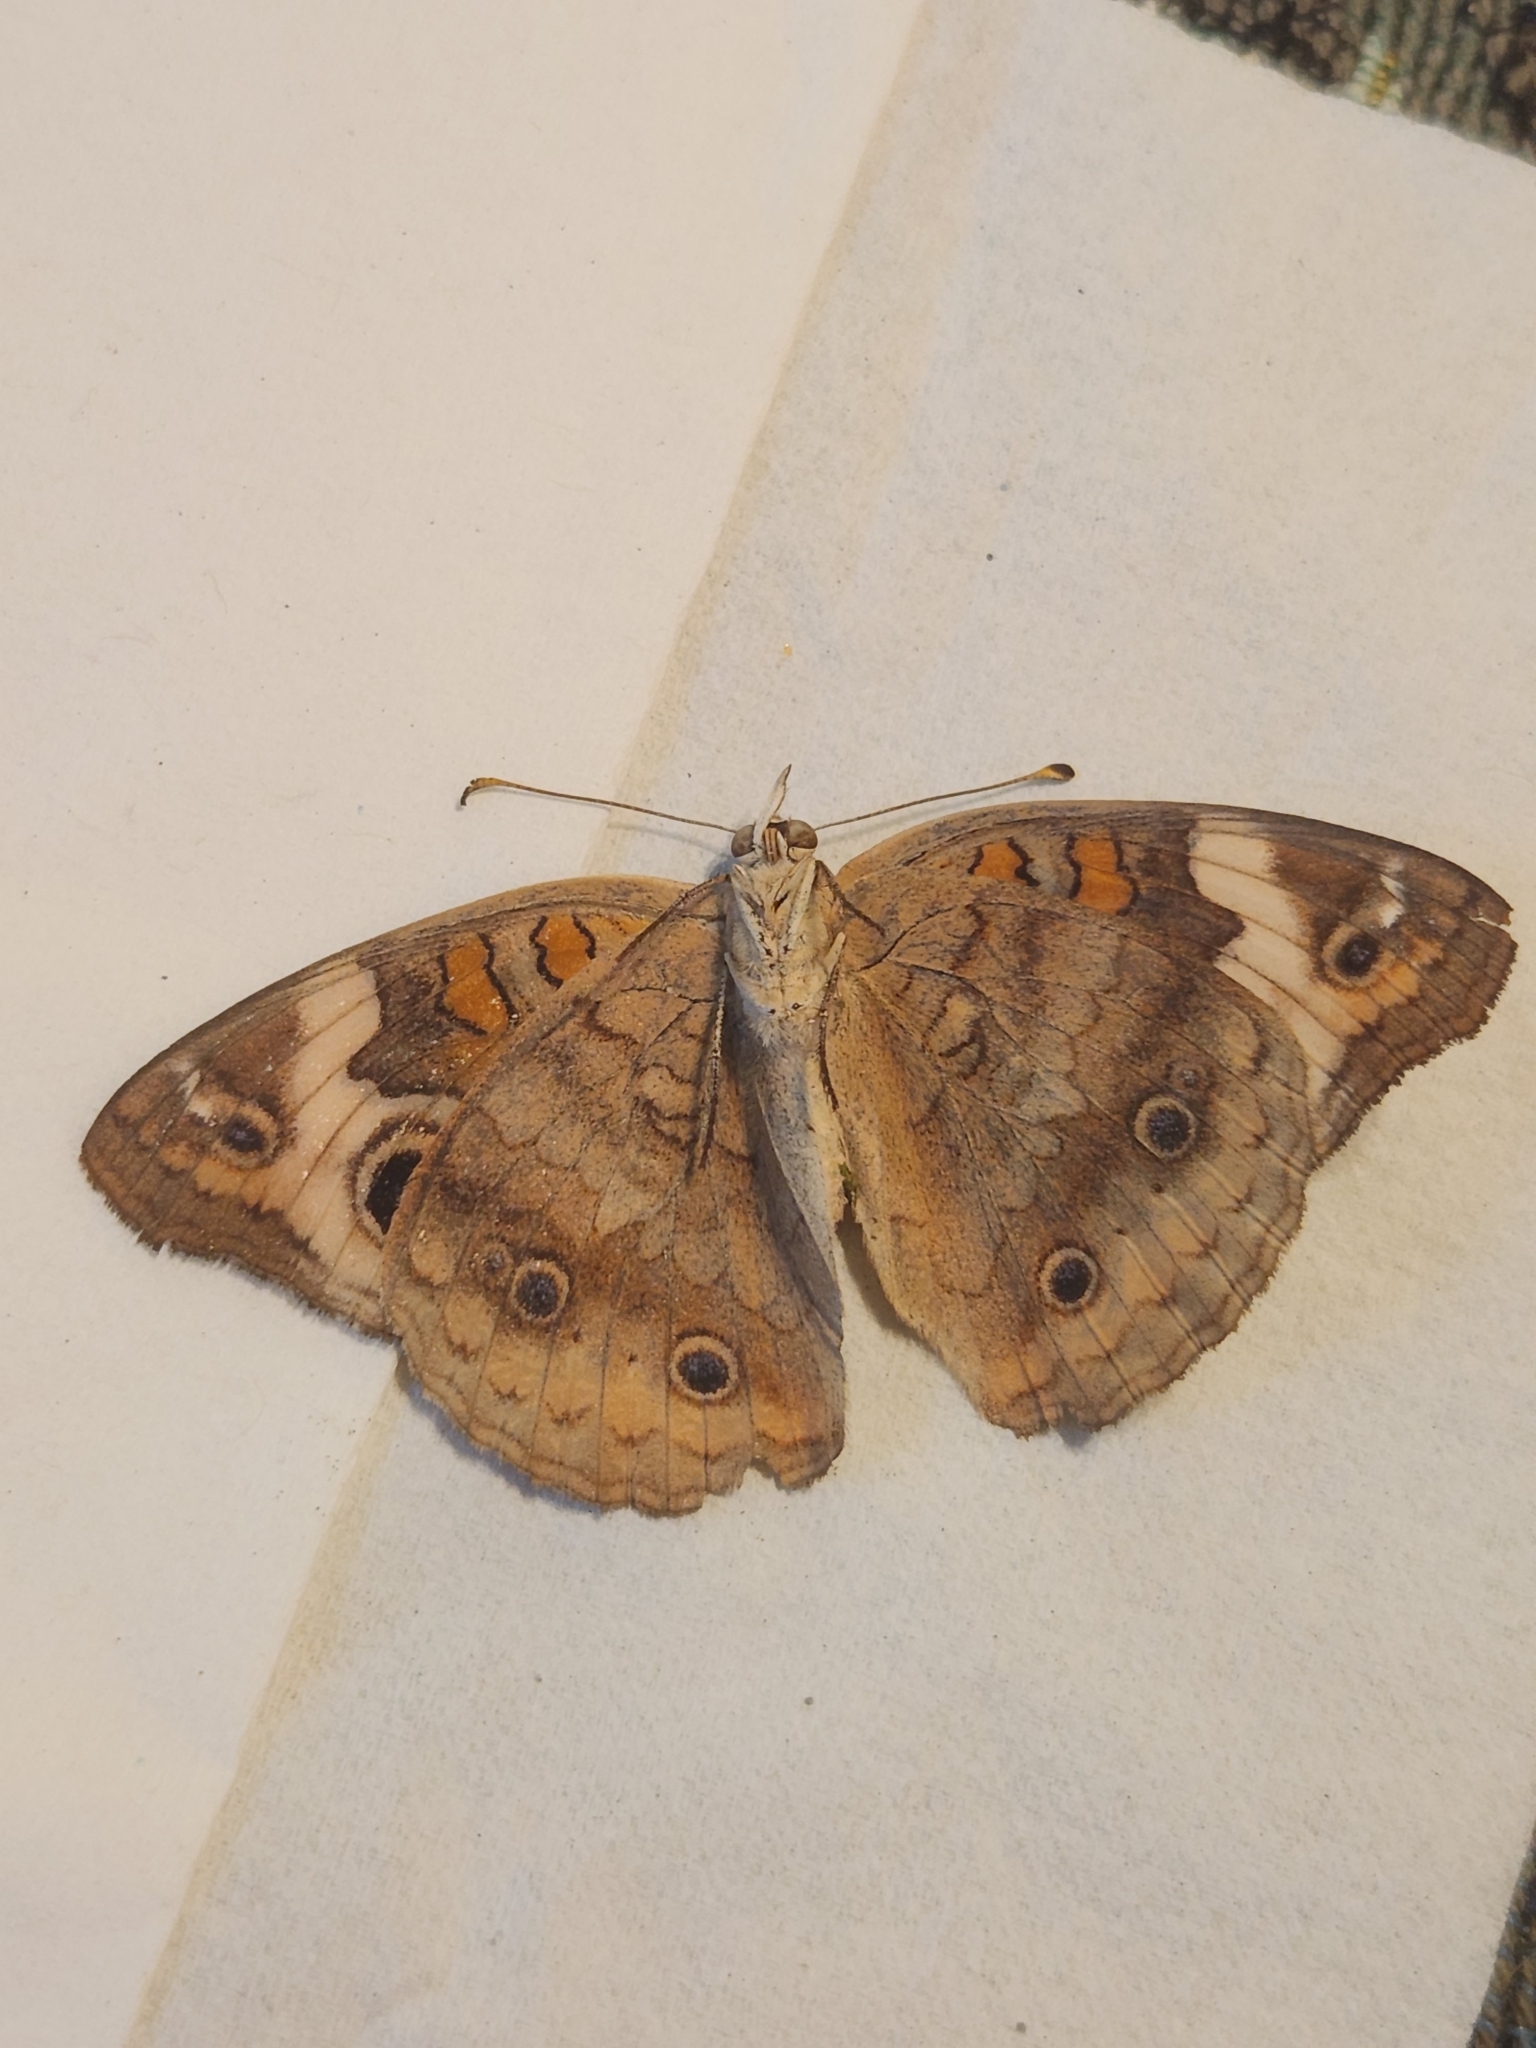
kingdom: Animalia
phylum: Arthropoda
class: Insecta
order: Lepidoptera
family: Nymphalidae
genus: Junonia
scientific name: Junonia coenia
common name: Common buckeye
